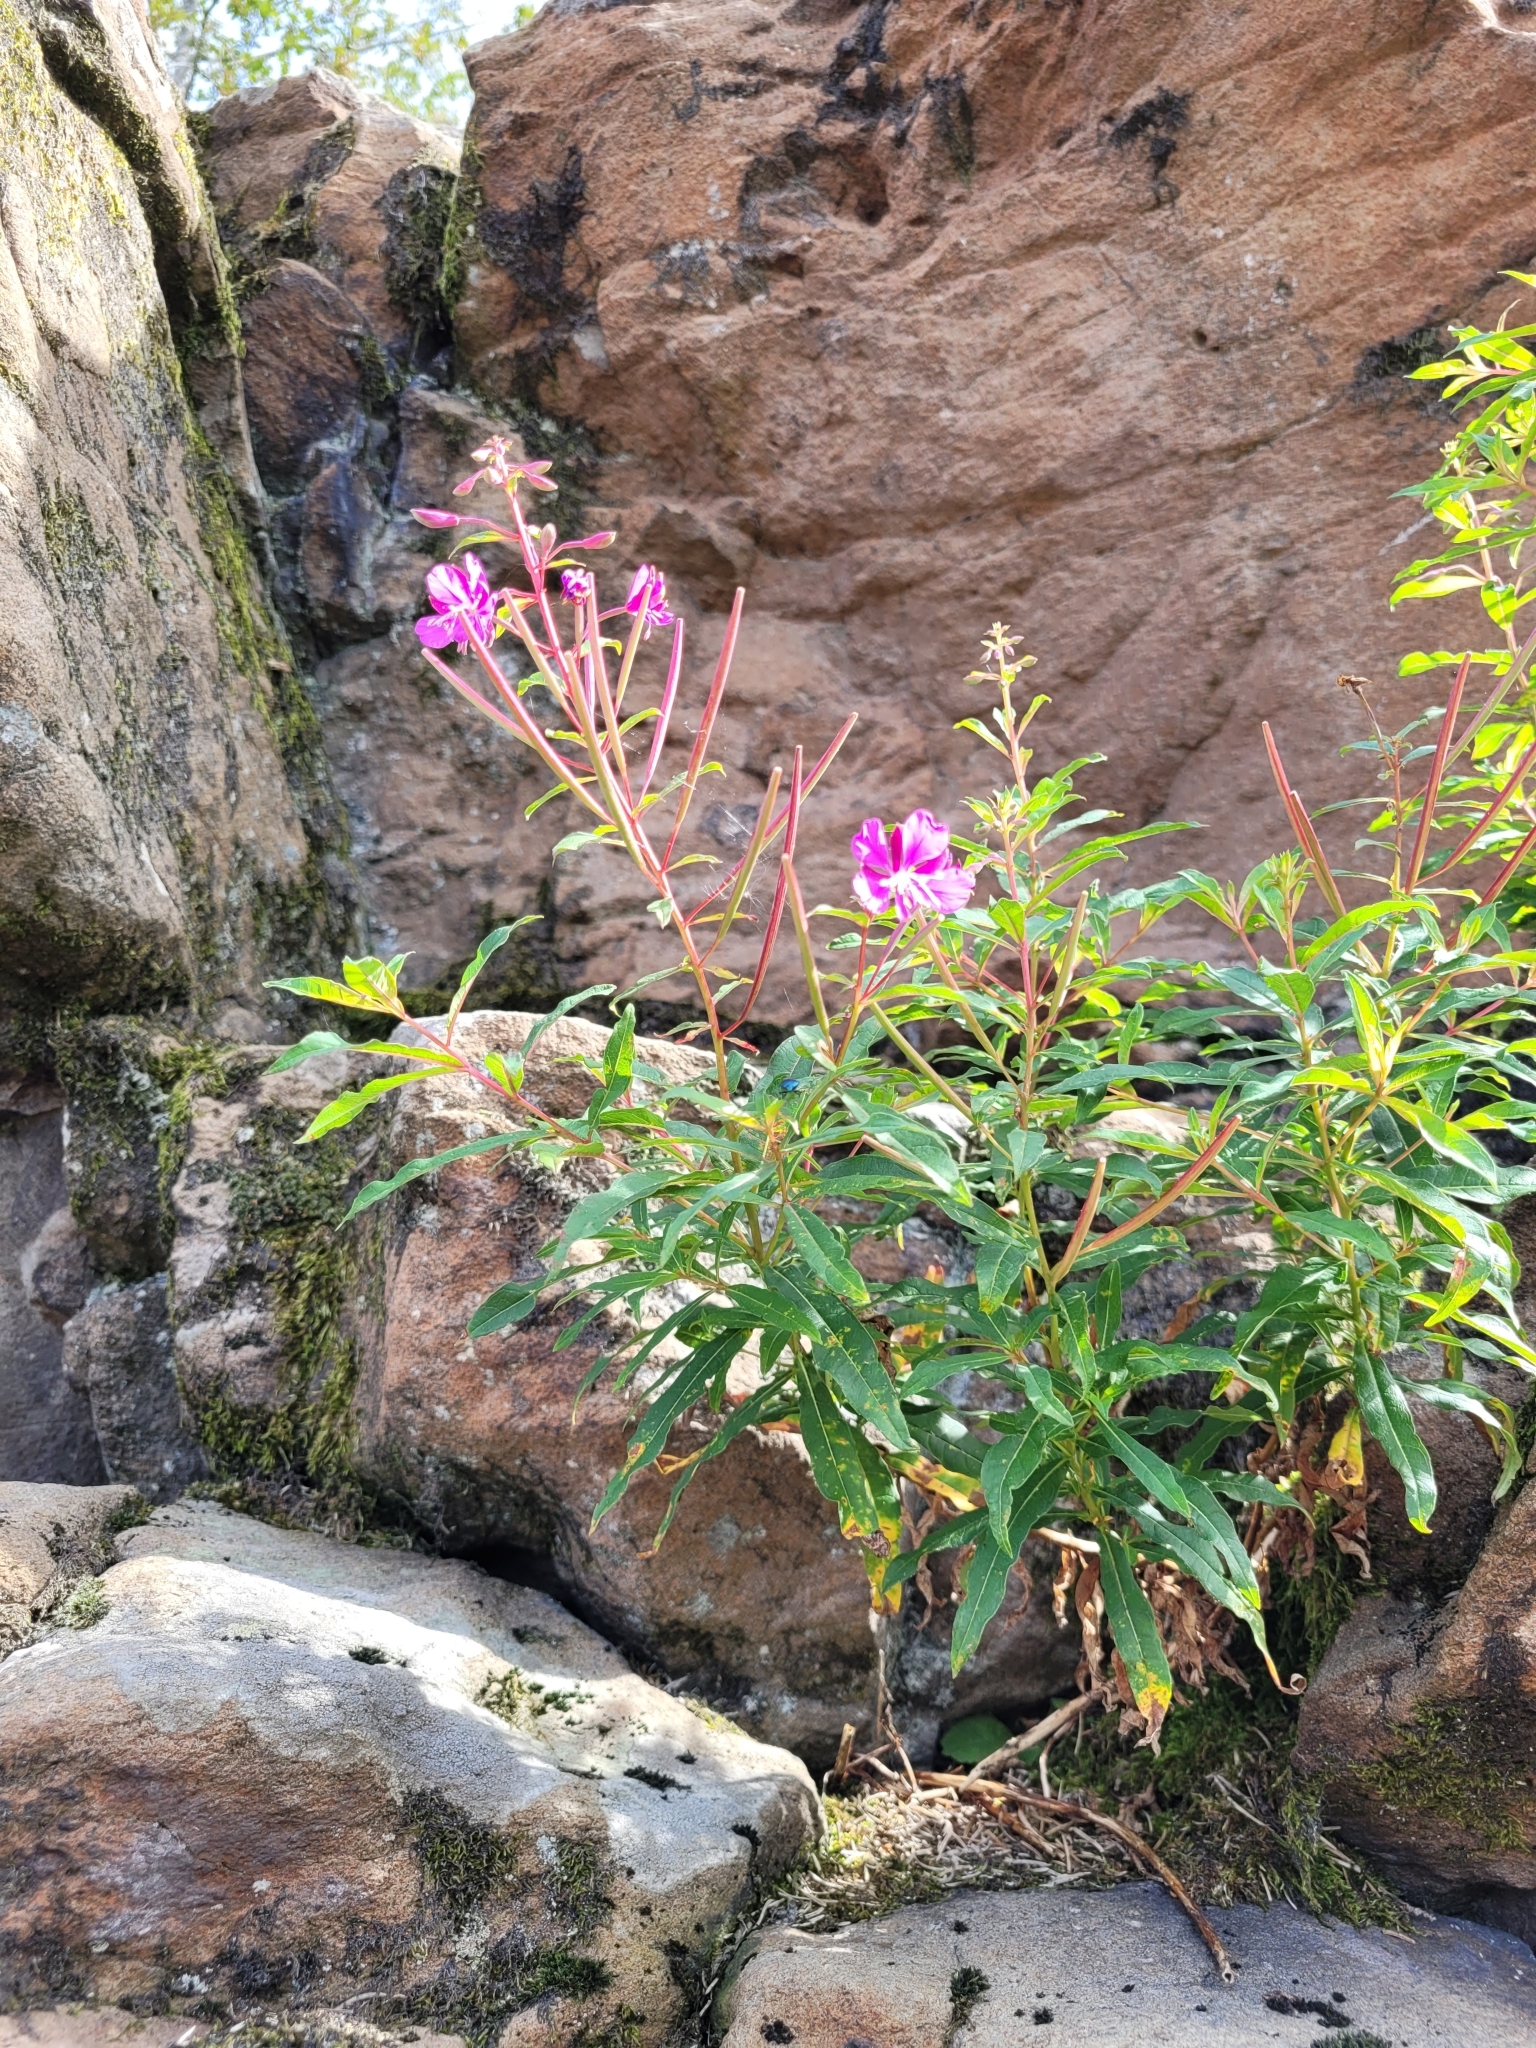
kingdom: Plantae
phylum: Tracheophyta
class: Magnoliopsida
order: Myrtales
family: Onagraceae
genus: Chamaenerion
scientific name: Chamaenerion angustifolium
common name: Fireweed
